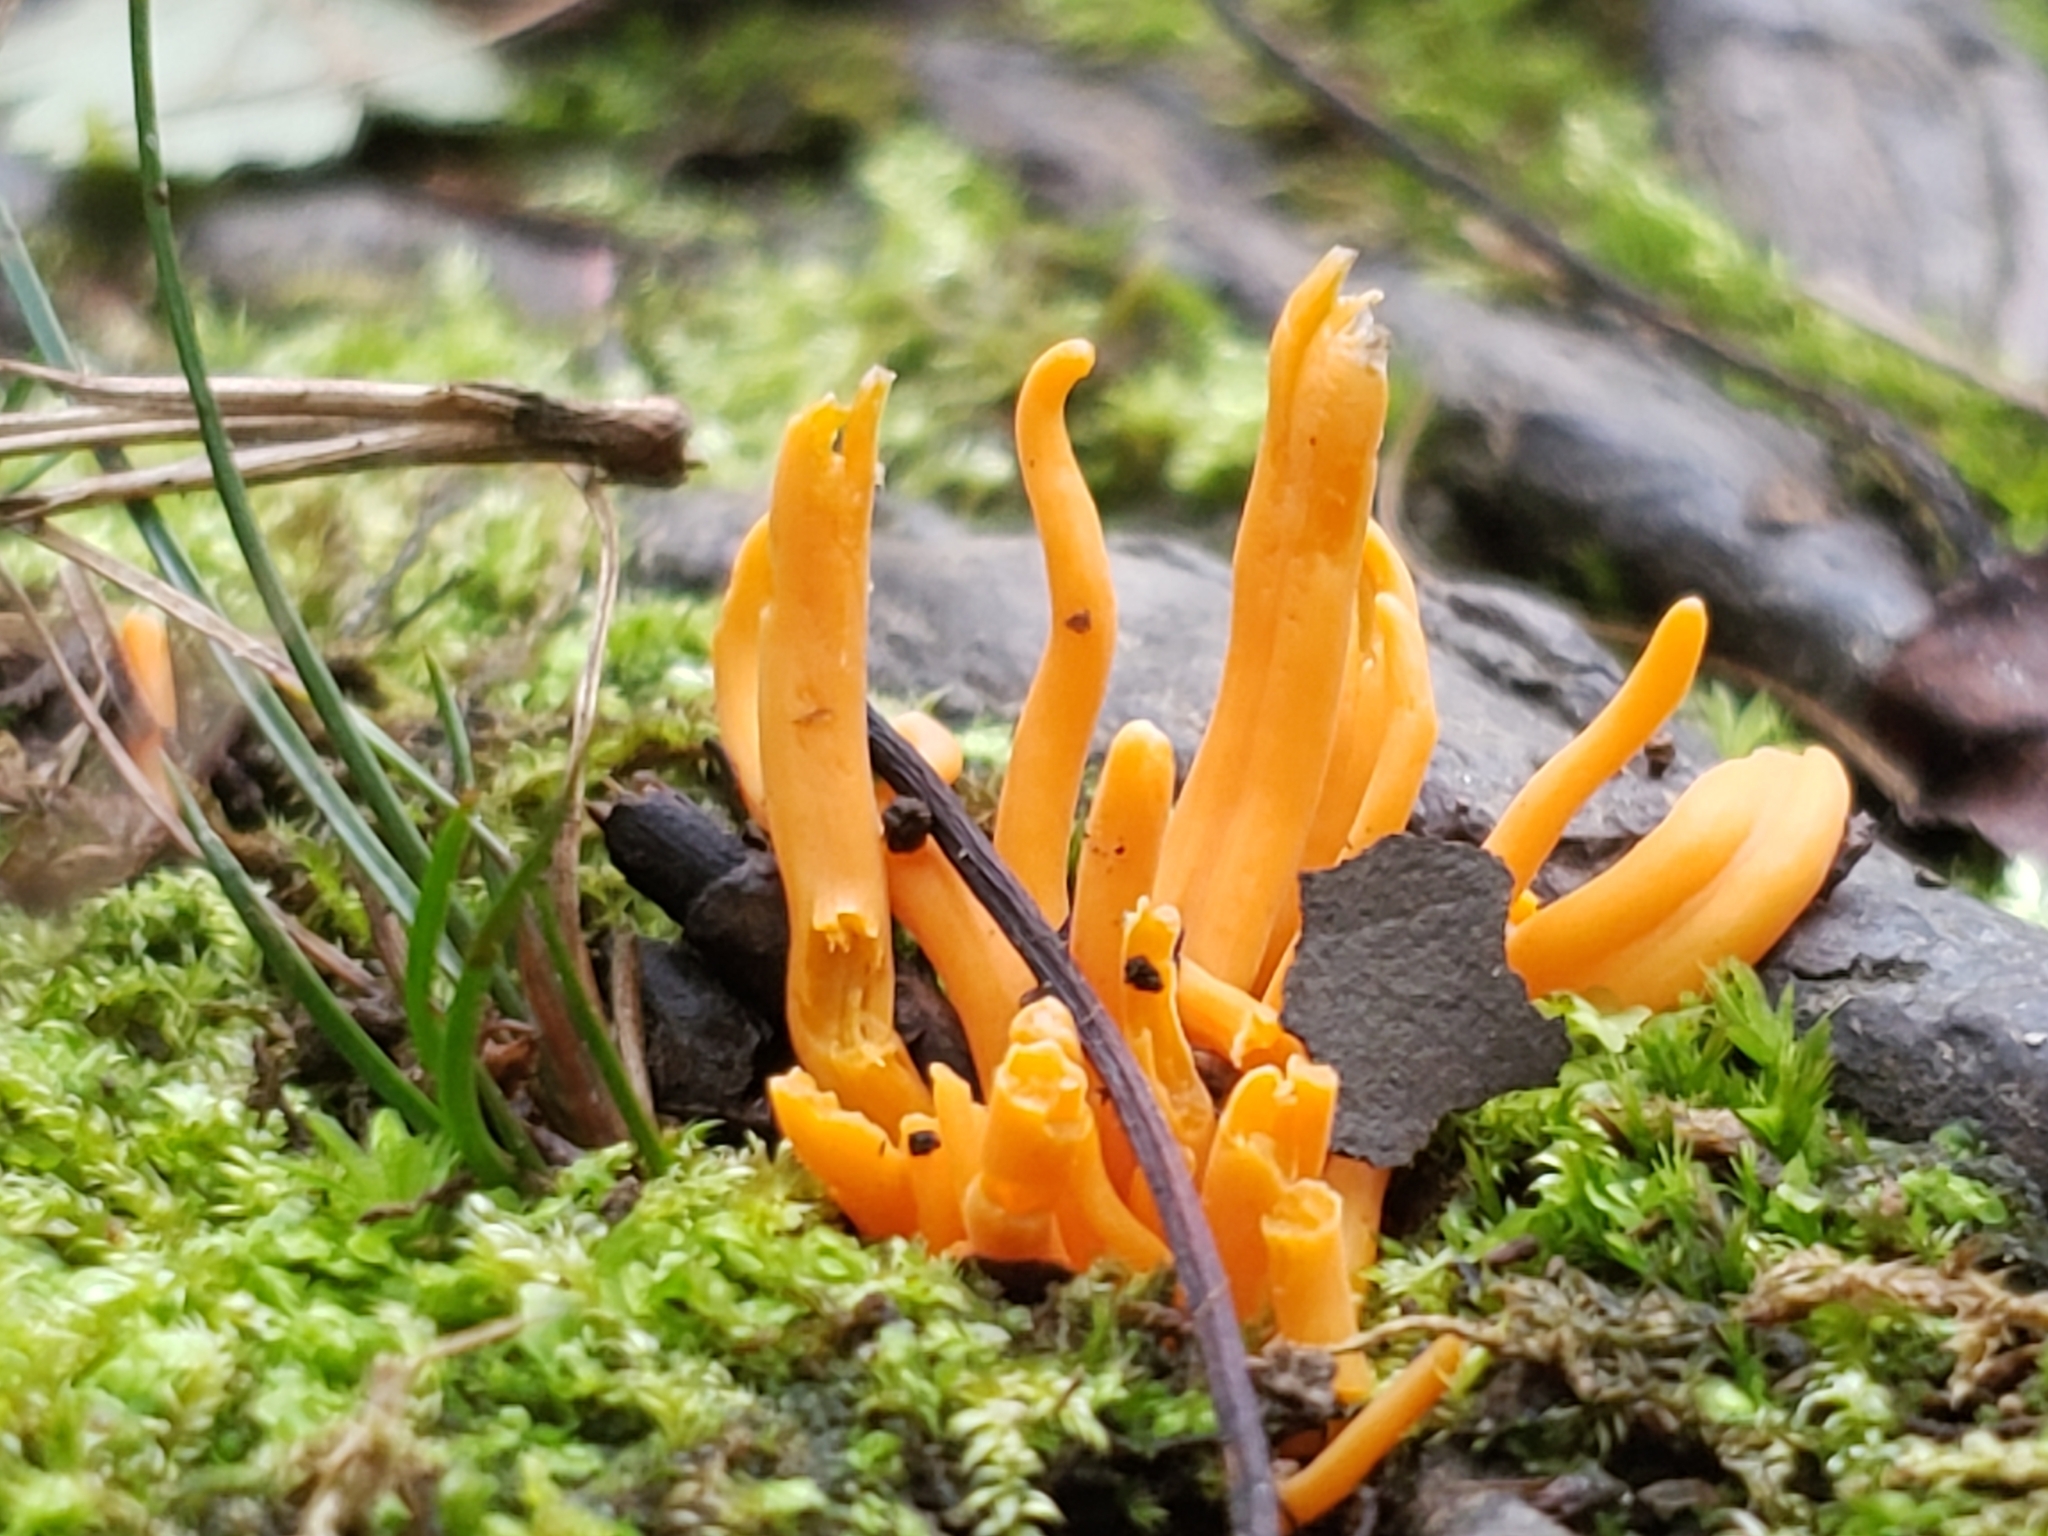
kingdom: Fungi
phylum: Basidiomycota
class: Agaricomycetes
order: Agaricales
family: Clavariaceae
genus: Clavulinopsis
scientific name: Clavulinopsis aurantiocinnabarina
